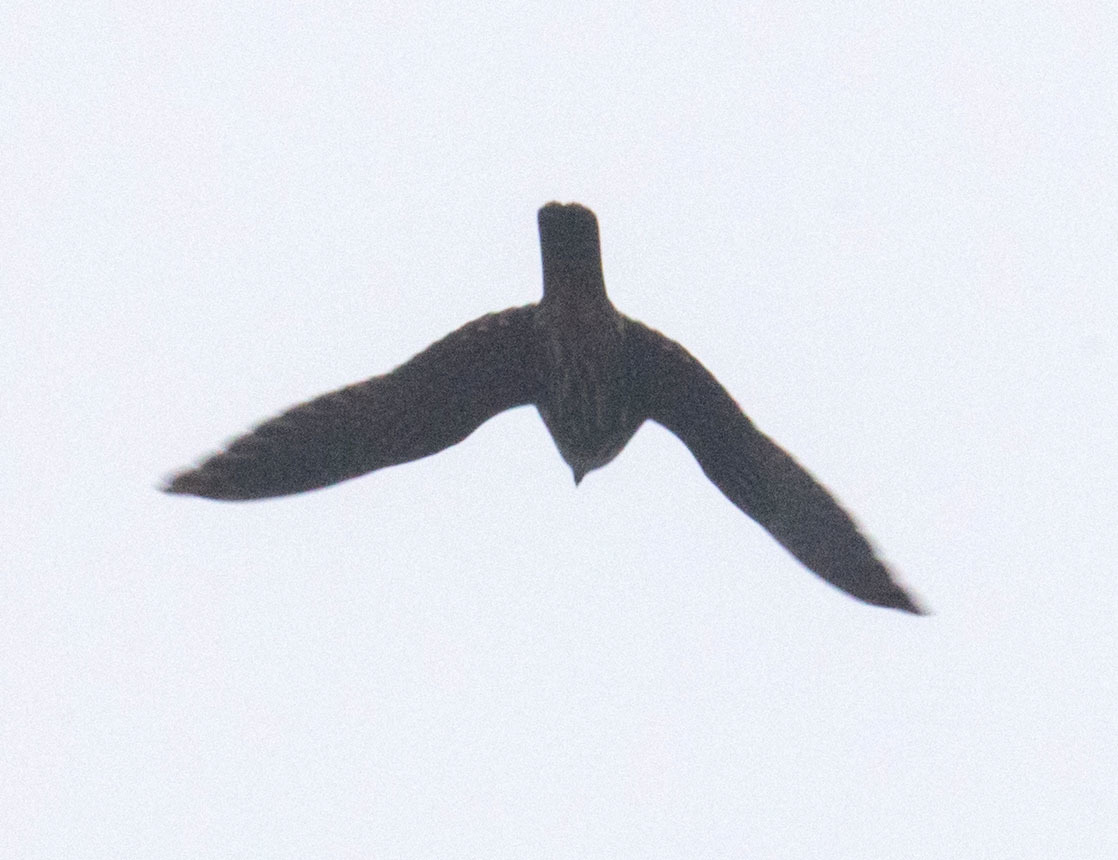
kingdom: Animalia
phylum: Chordata
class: Aves
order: Falconiformes
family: Falconidae
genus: Falco
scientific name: Falco columbarius
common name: Merlin
